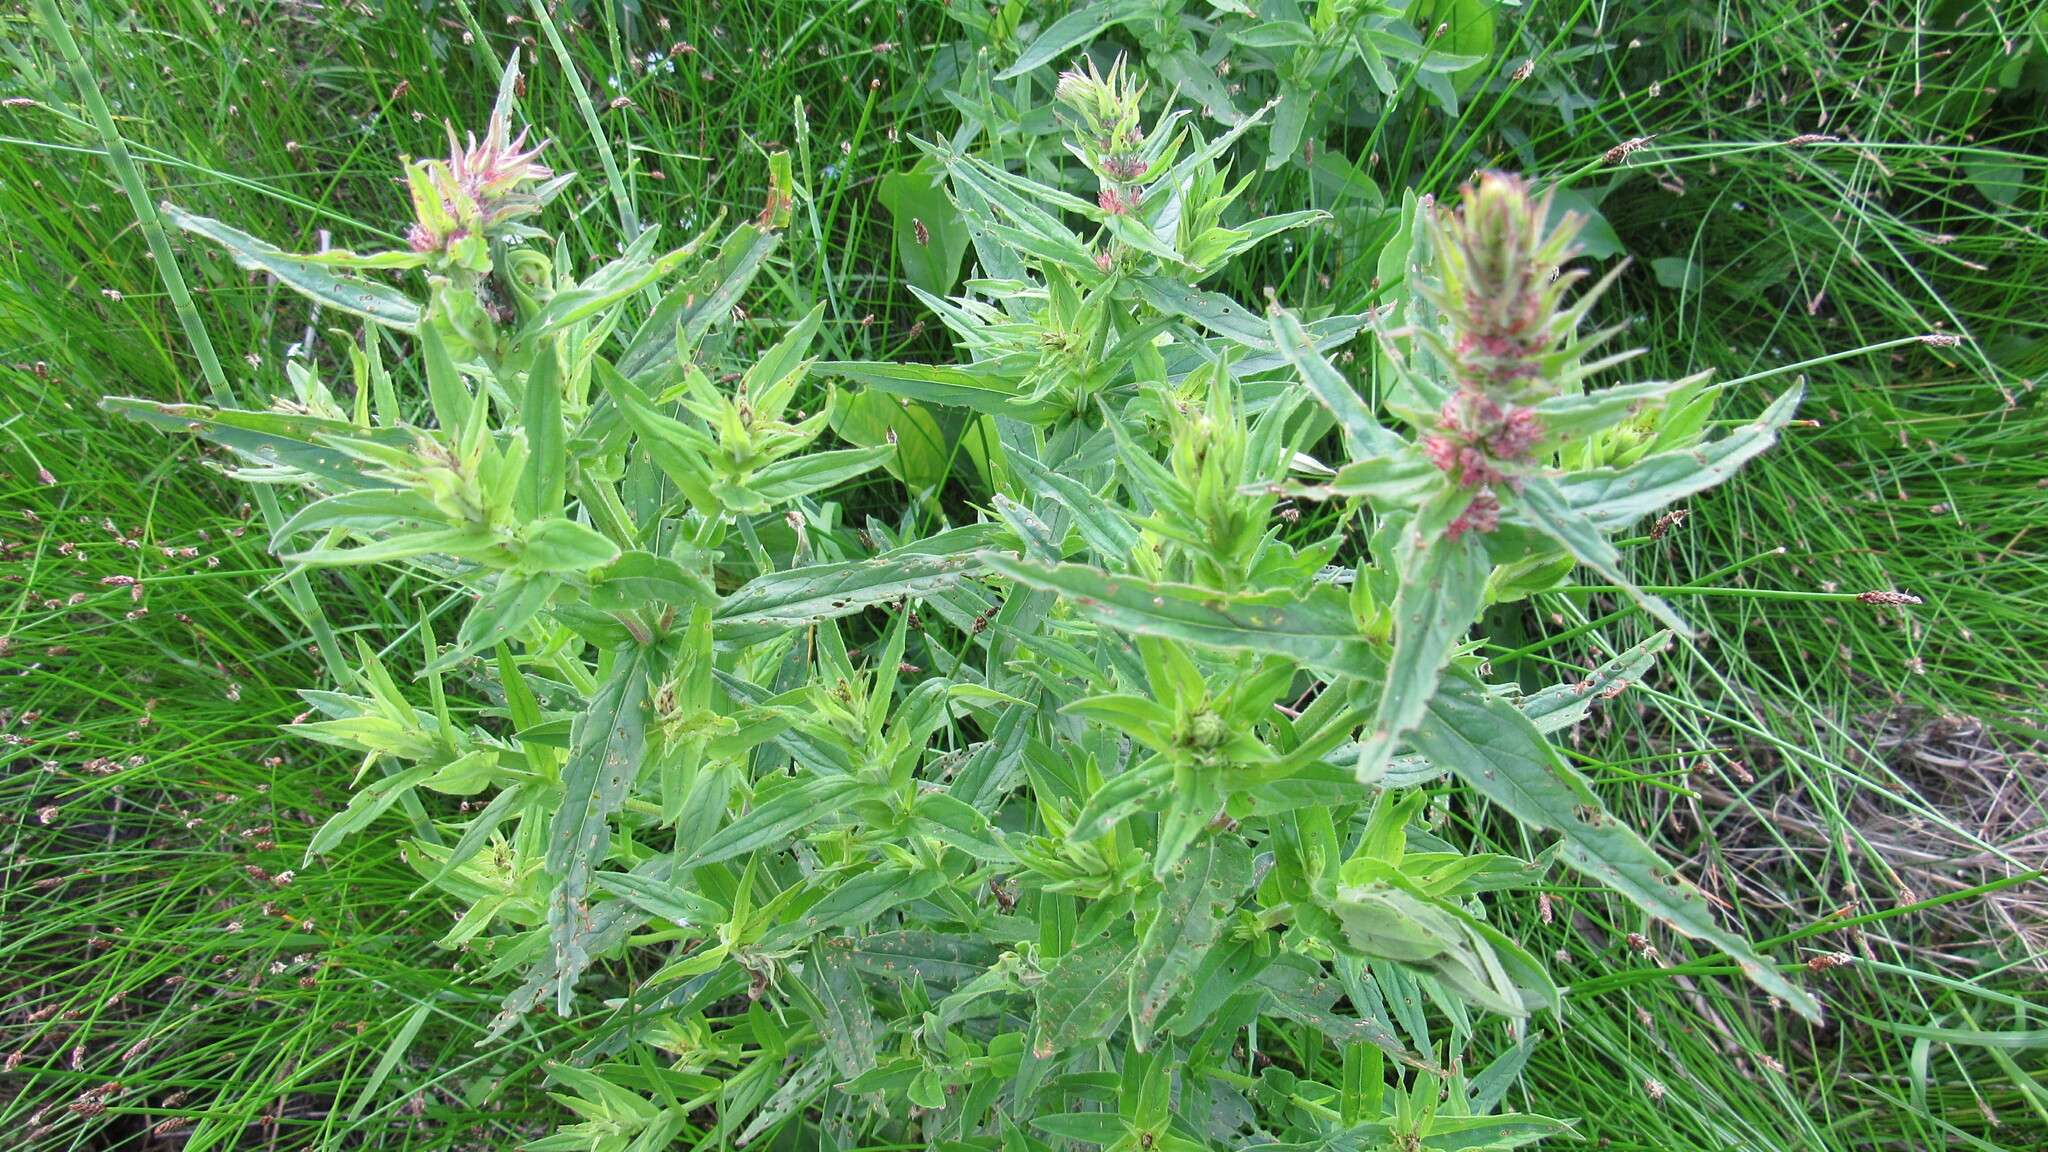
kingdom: Plantae
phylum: Tracheophyta
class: Magnoliopsida
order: Myrtales
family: Lythraceae
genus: Lythrum
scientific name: Lythrum salicaria
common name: Purple loosestrife
